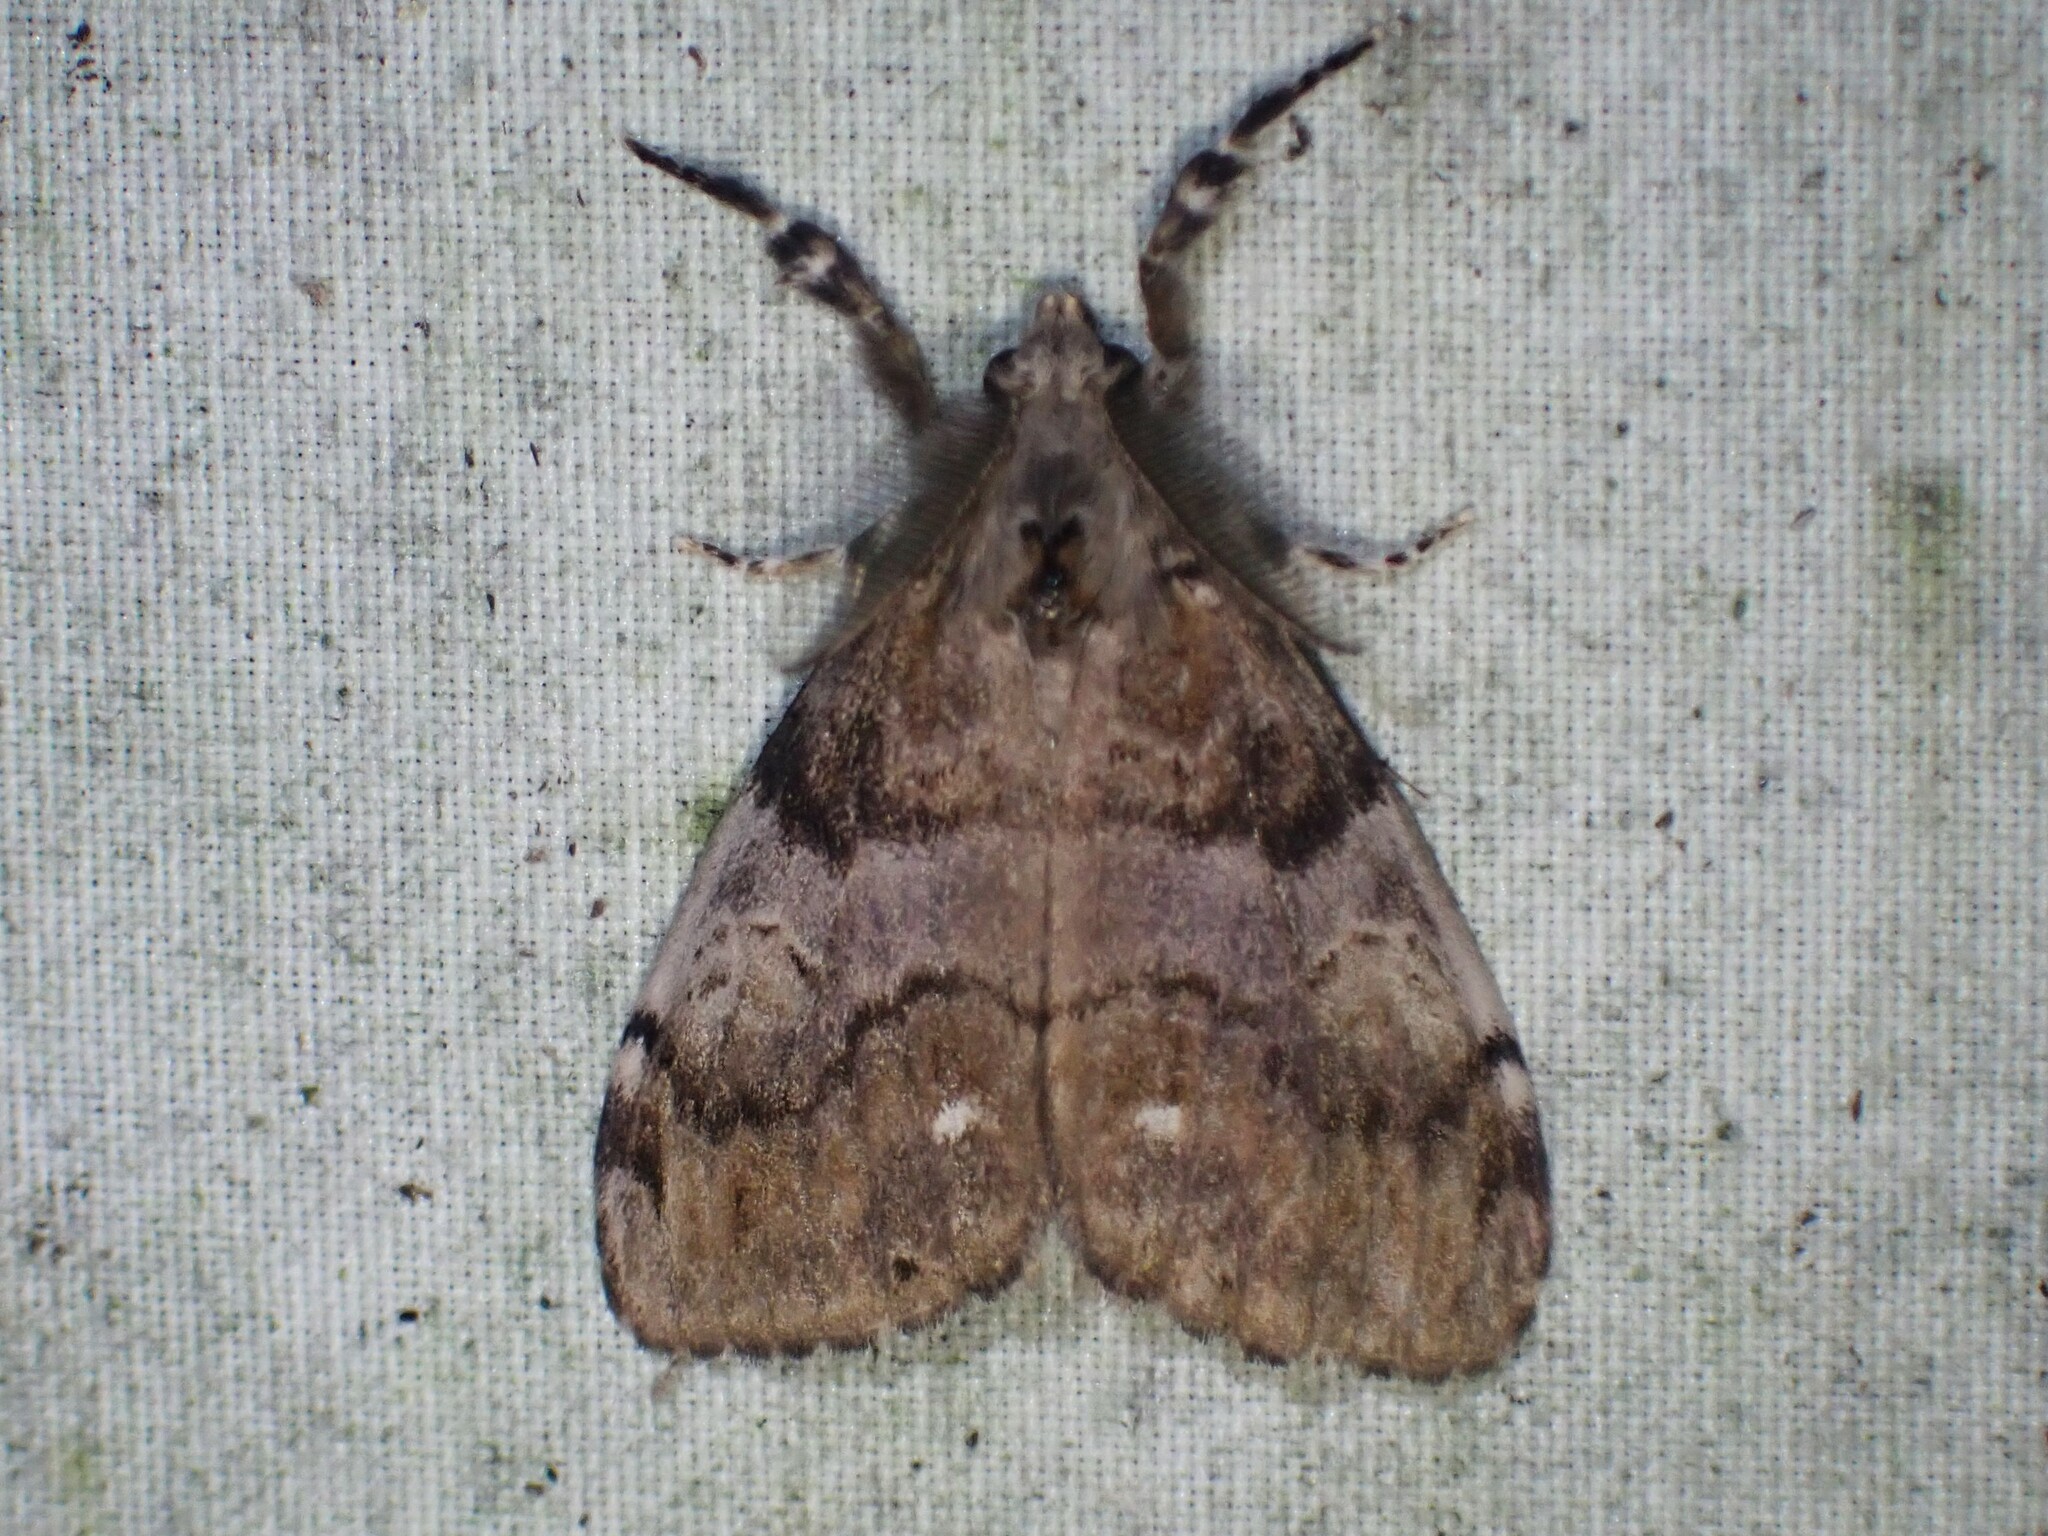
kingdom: Animalia
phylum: Arthropoda
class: Insecta
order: Lepidoptera
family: Erebidae
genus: Orgyia
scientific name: Orgyia leucostigma
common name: White-marked tussock moth
